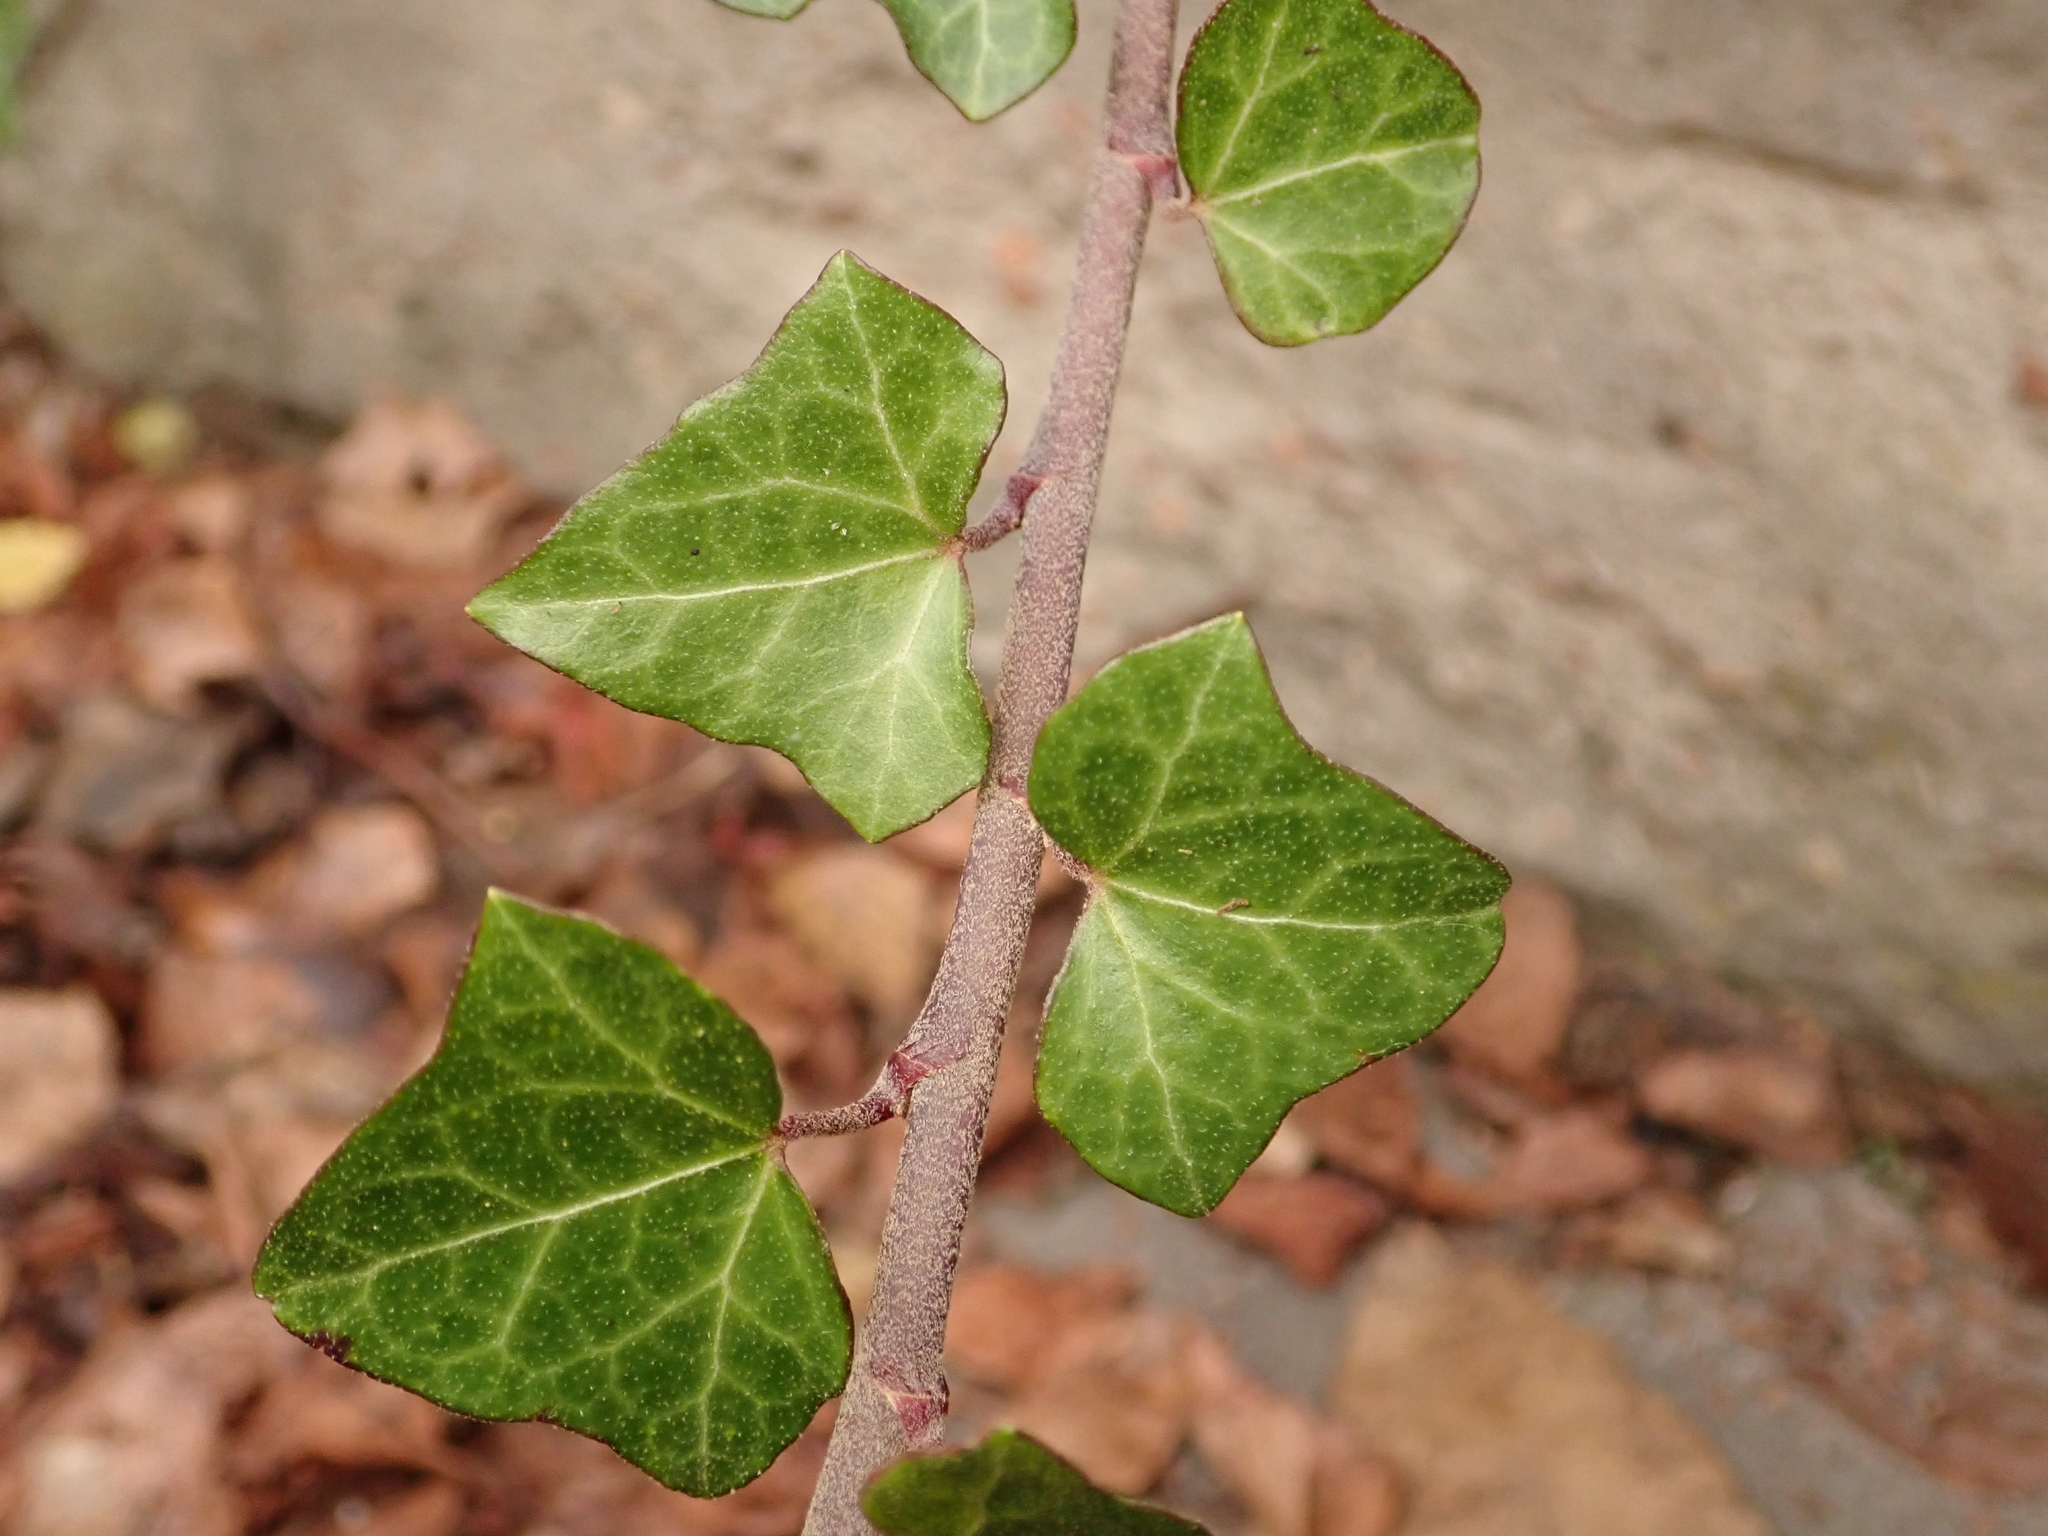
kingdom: Plantae
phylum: Tracheophyta
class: Magnoliopsida
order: Apiales
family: Araliaceae
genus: Hedera
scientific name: Hedera helix
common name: Ivy
